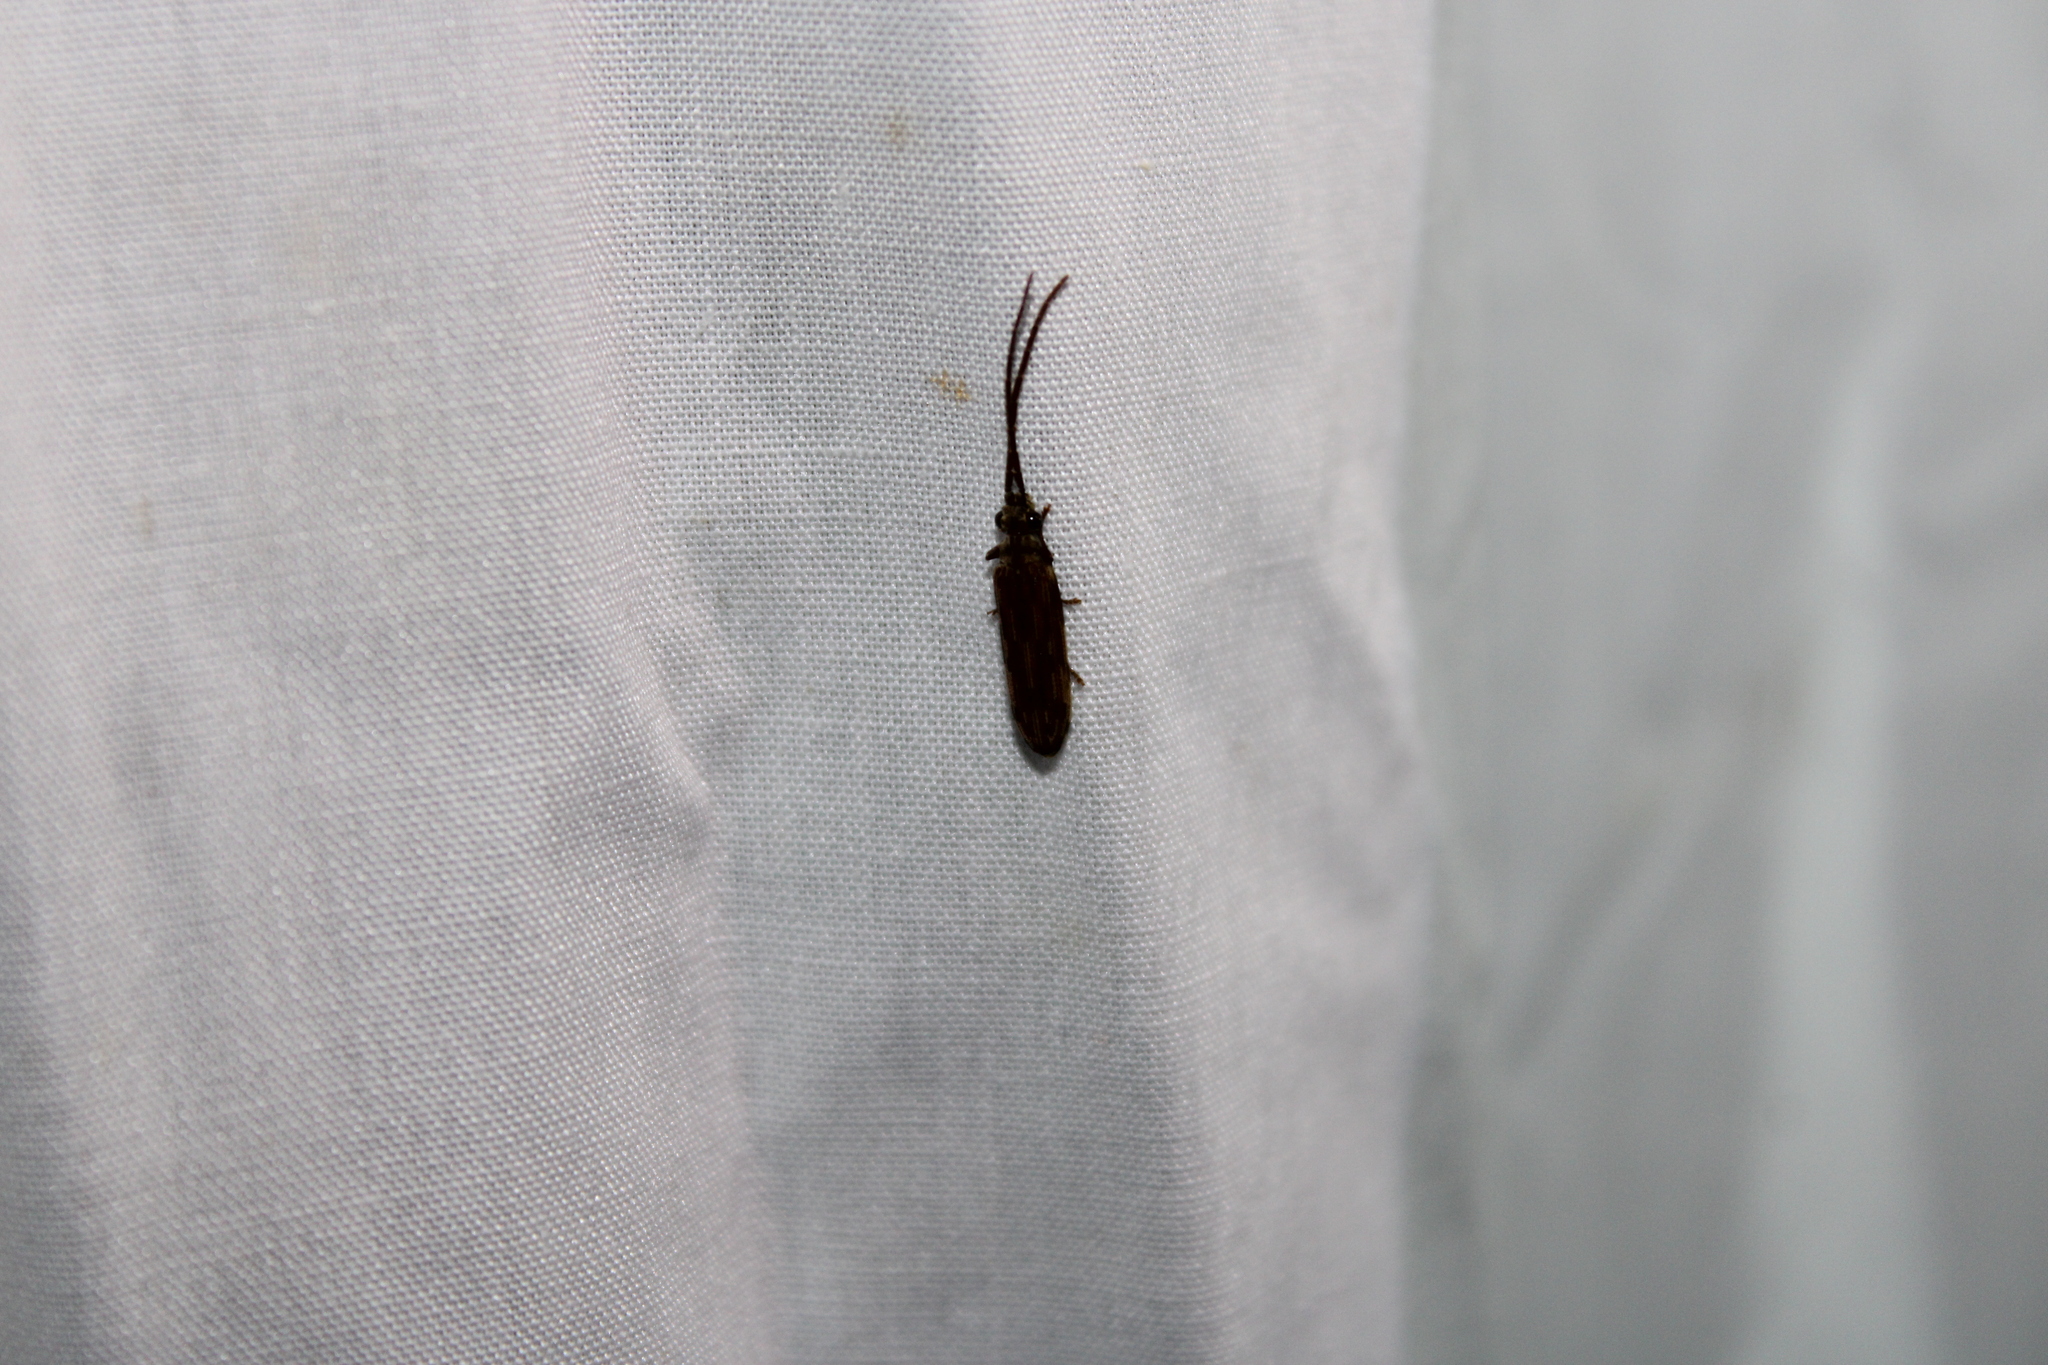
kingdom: Animalia
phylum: Arthropoda
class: Insecta
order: Coleoptera
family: Cupedidae
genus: Tenomerga
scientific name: Tenomerga cinerea
